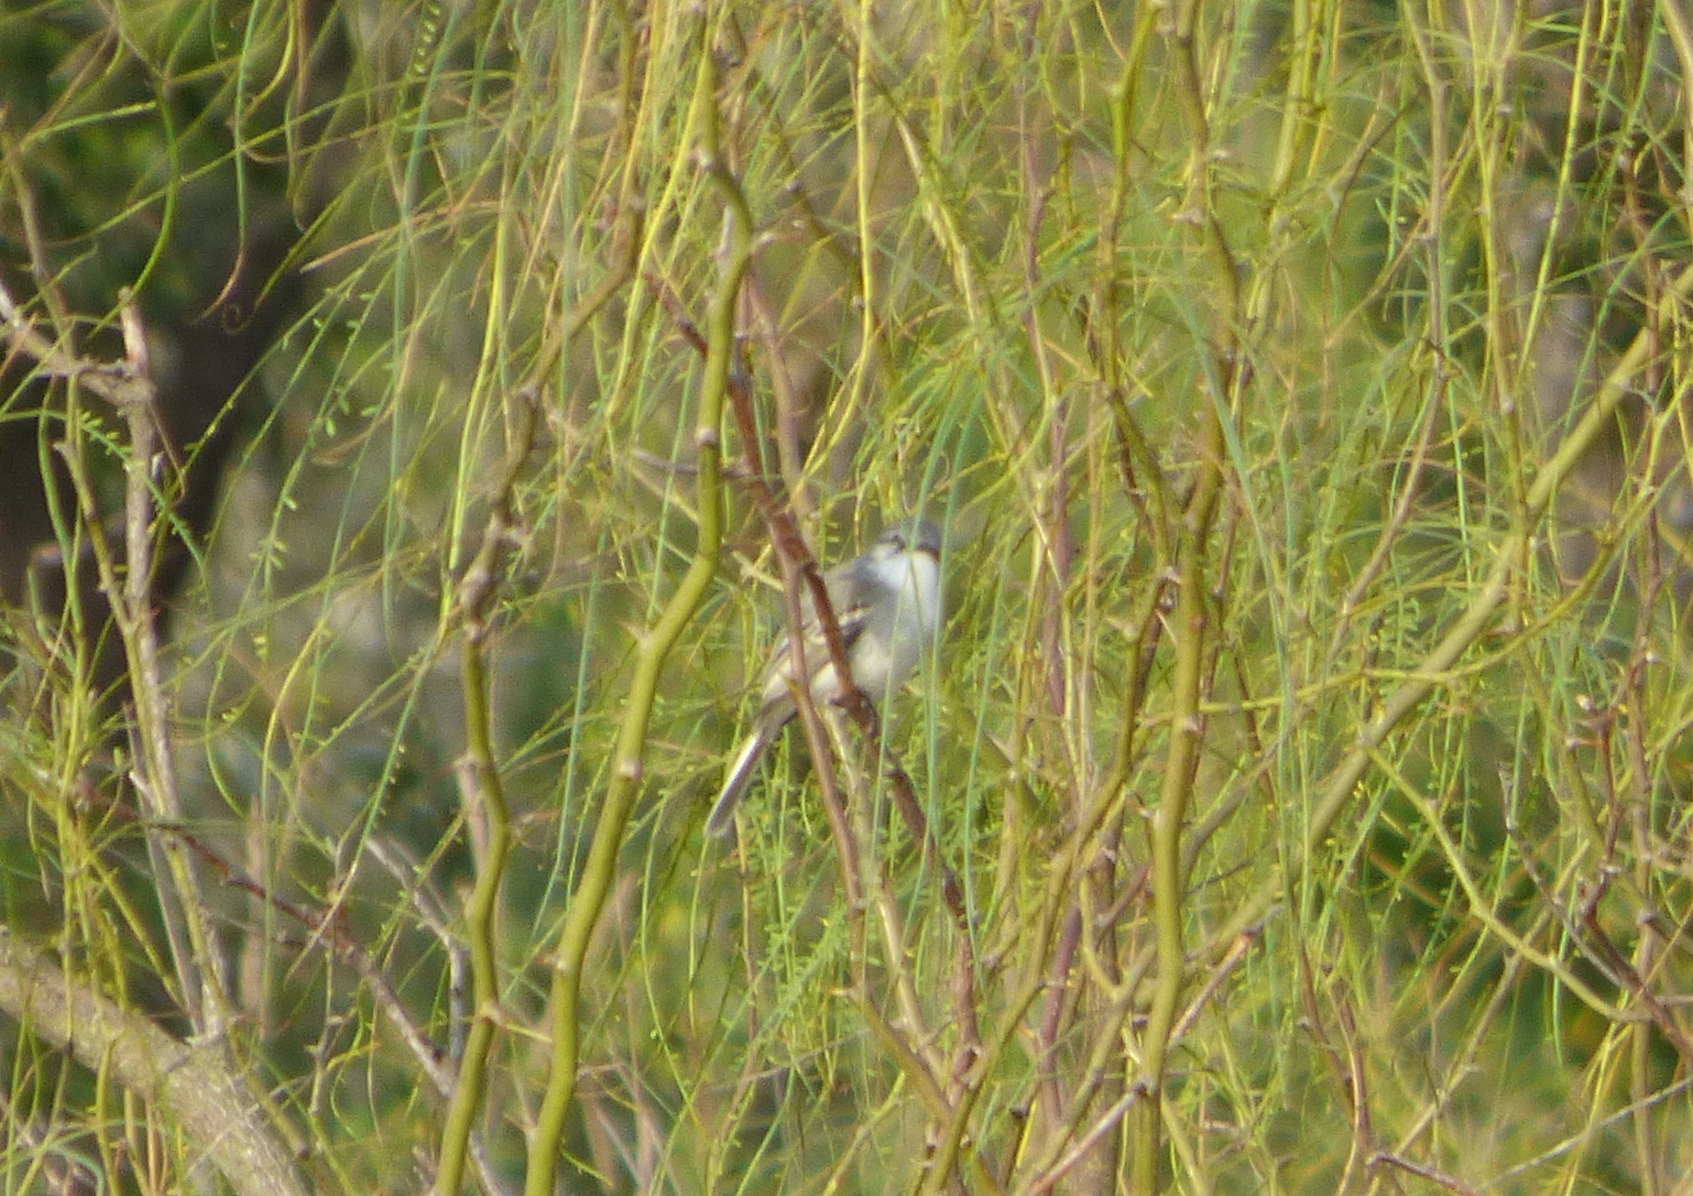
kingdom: Animalia
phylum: Chordata
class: Aves
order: Passeriformes
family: Tyrannidae
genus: Suiriri
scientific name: Suiriri suiriri
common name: Suiriri flycatcher
